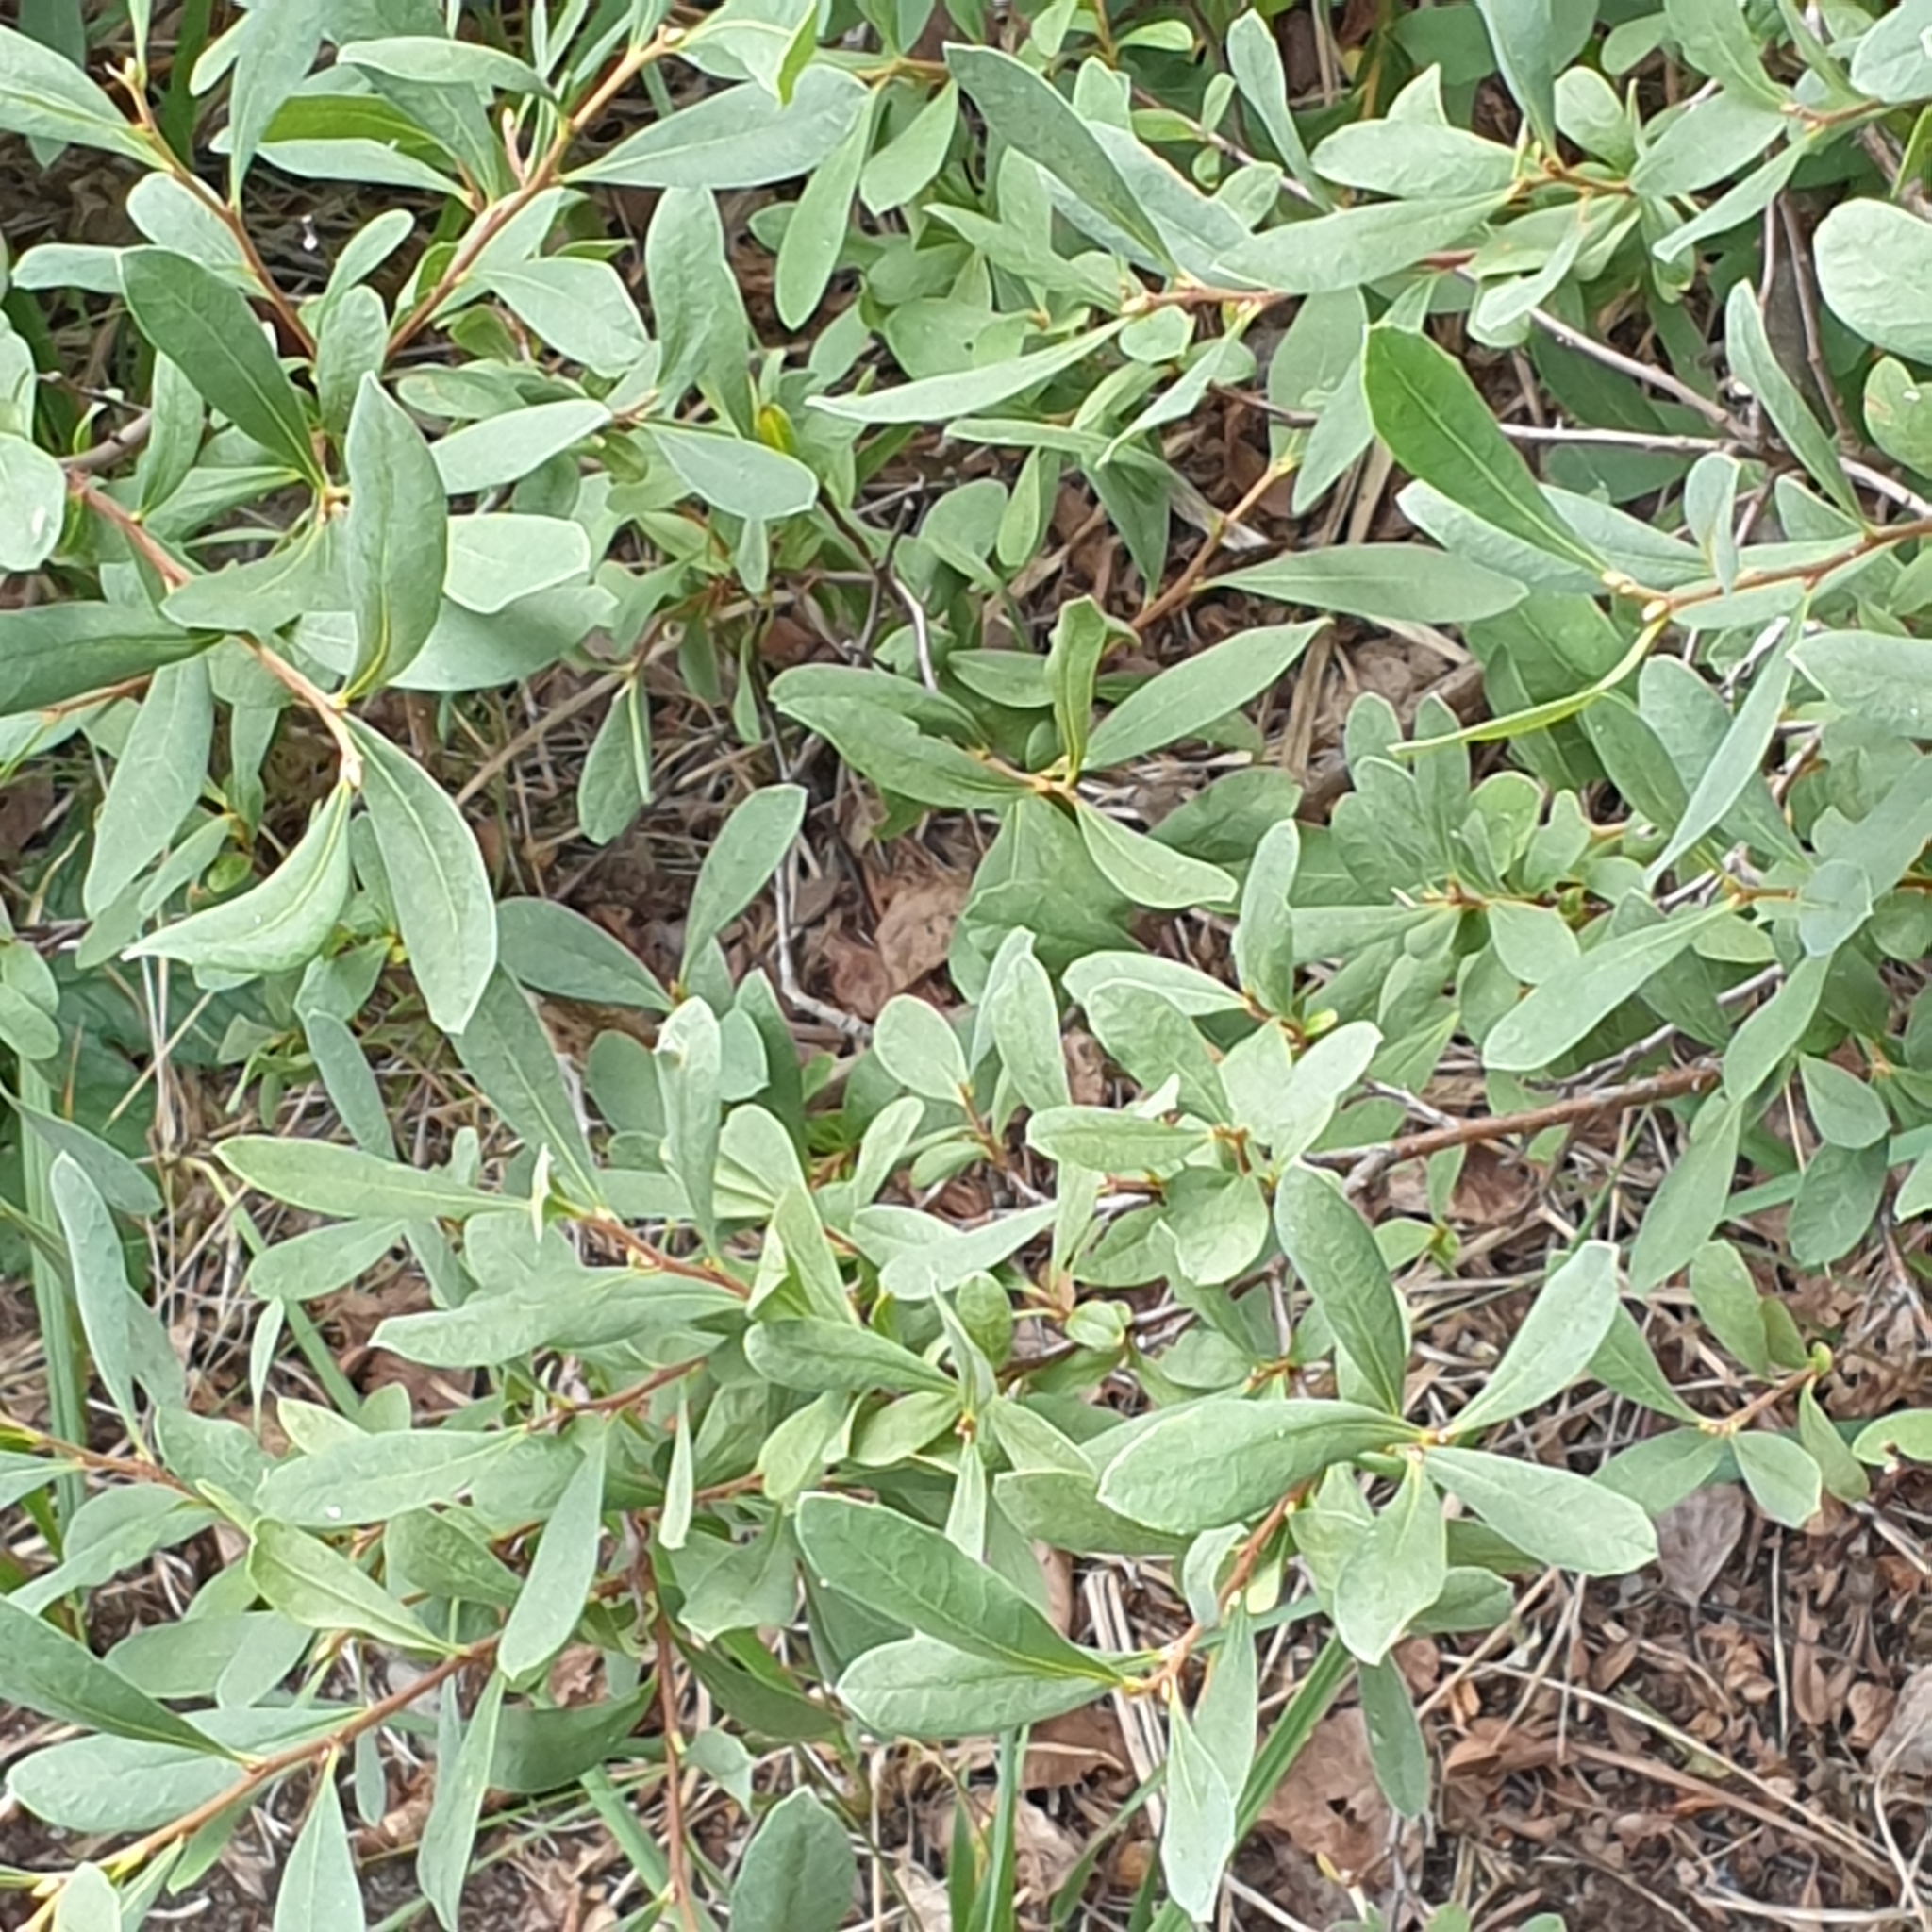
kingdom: Plantae
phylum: Tracheophyta
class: Magnoliopsida
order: Fagales
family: Myricaceae
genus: Myrica
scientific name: Myrica gale
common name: Sweet gale
